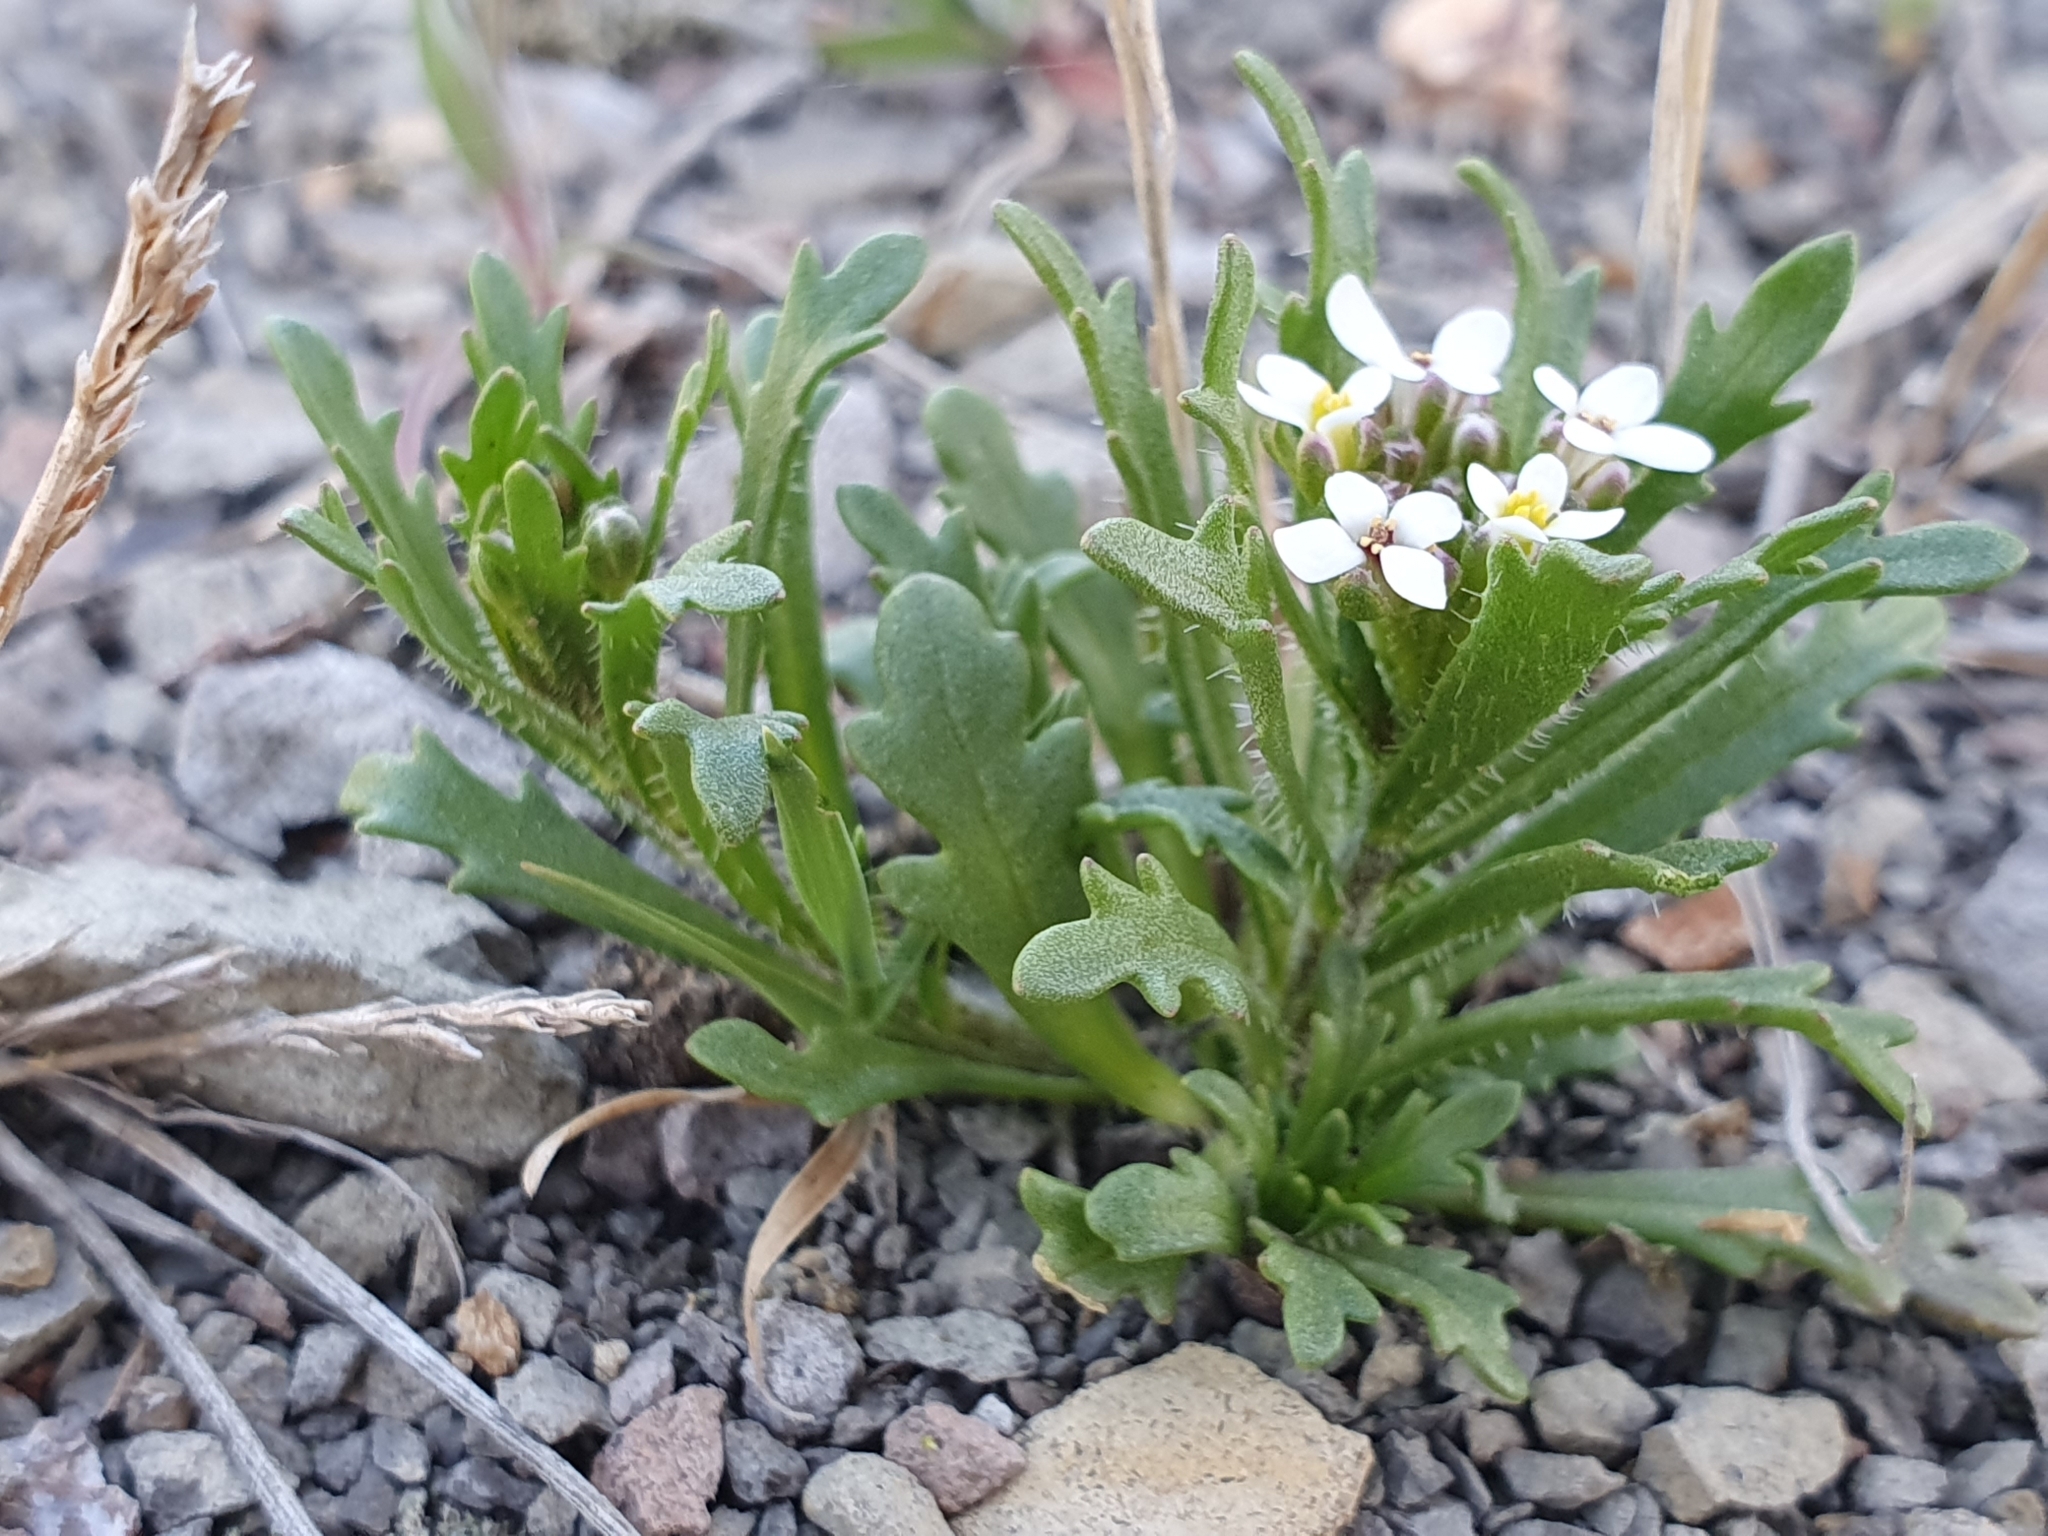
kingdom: Plantae
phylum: Tracheophyta
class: Magnoliopsida
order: Brassicales
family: Brassicaceae
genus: Iberis
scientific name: Iberis odorata
